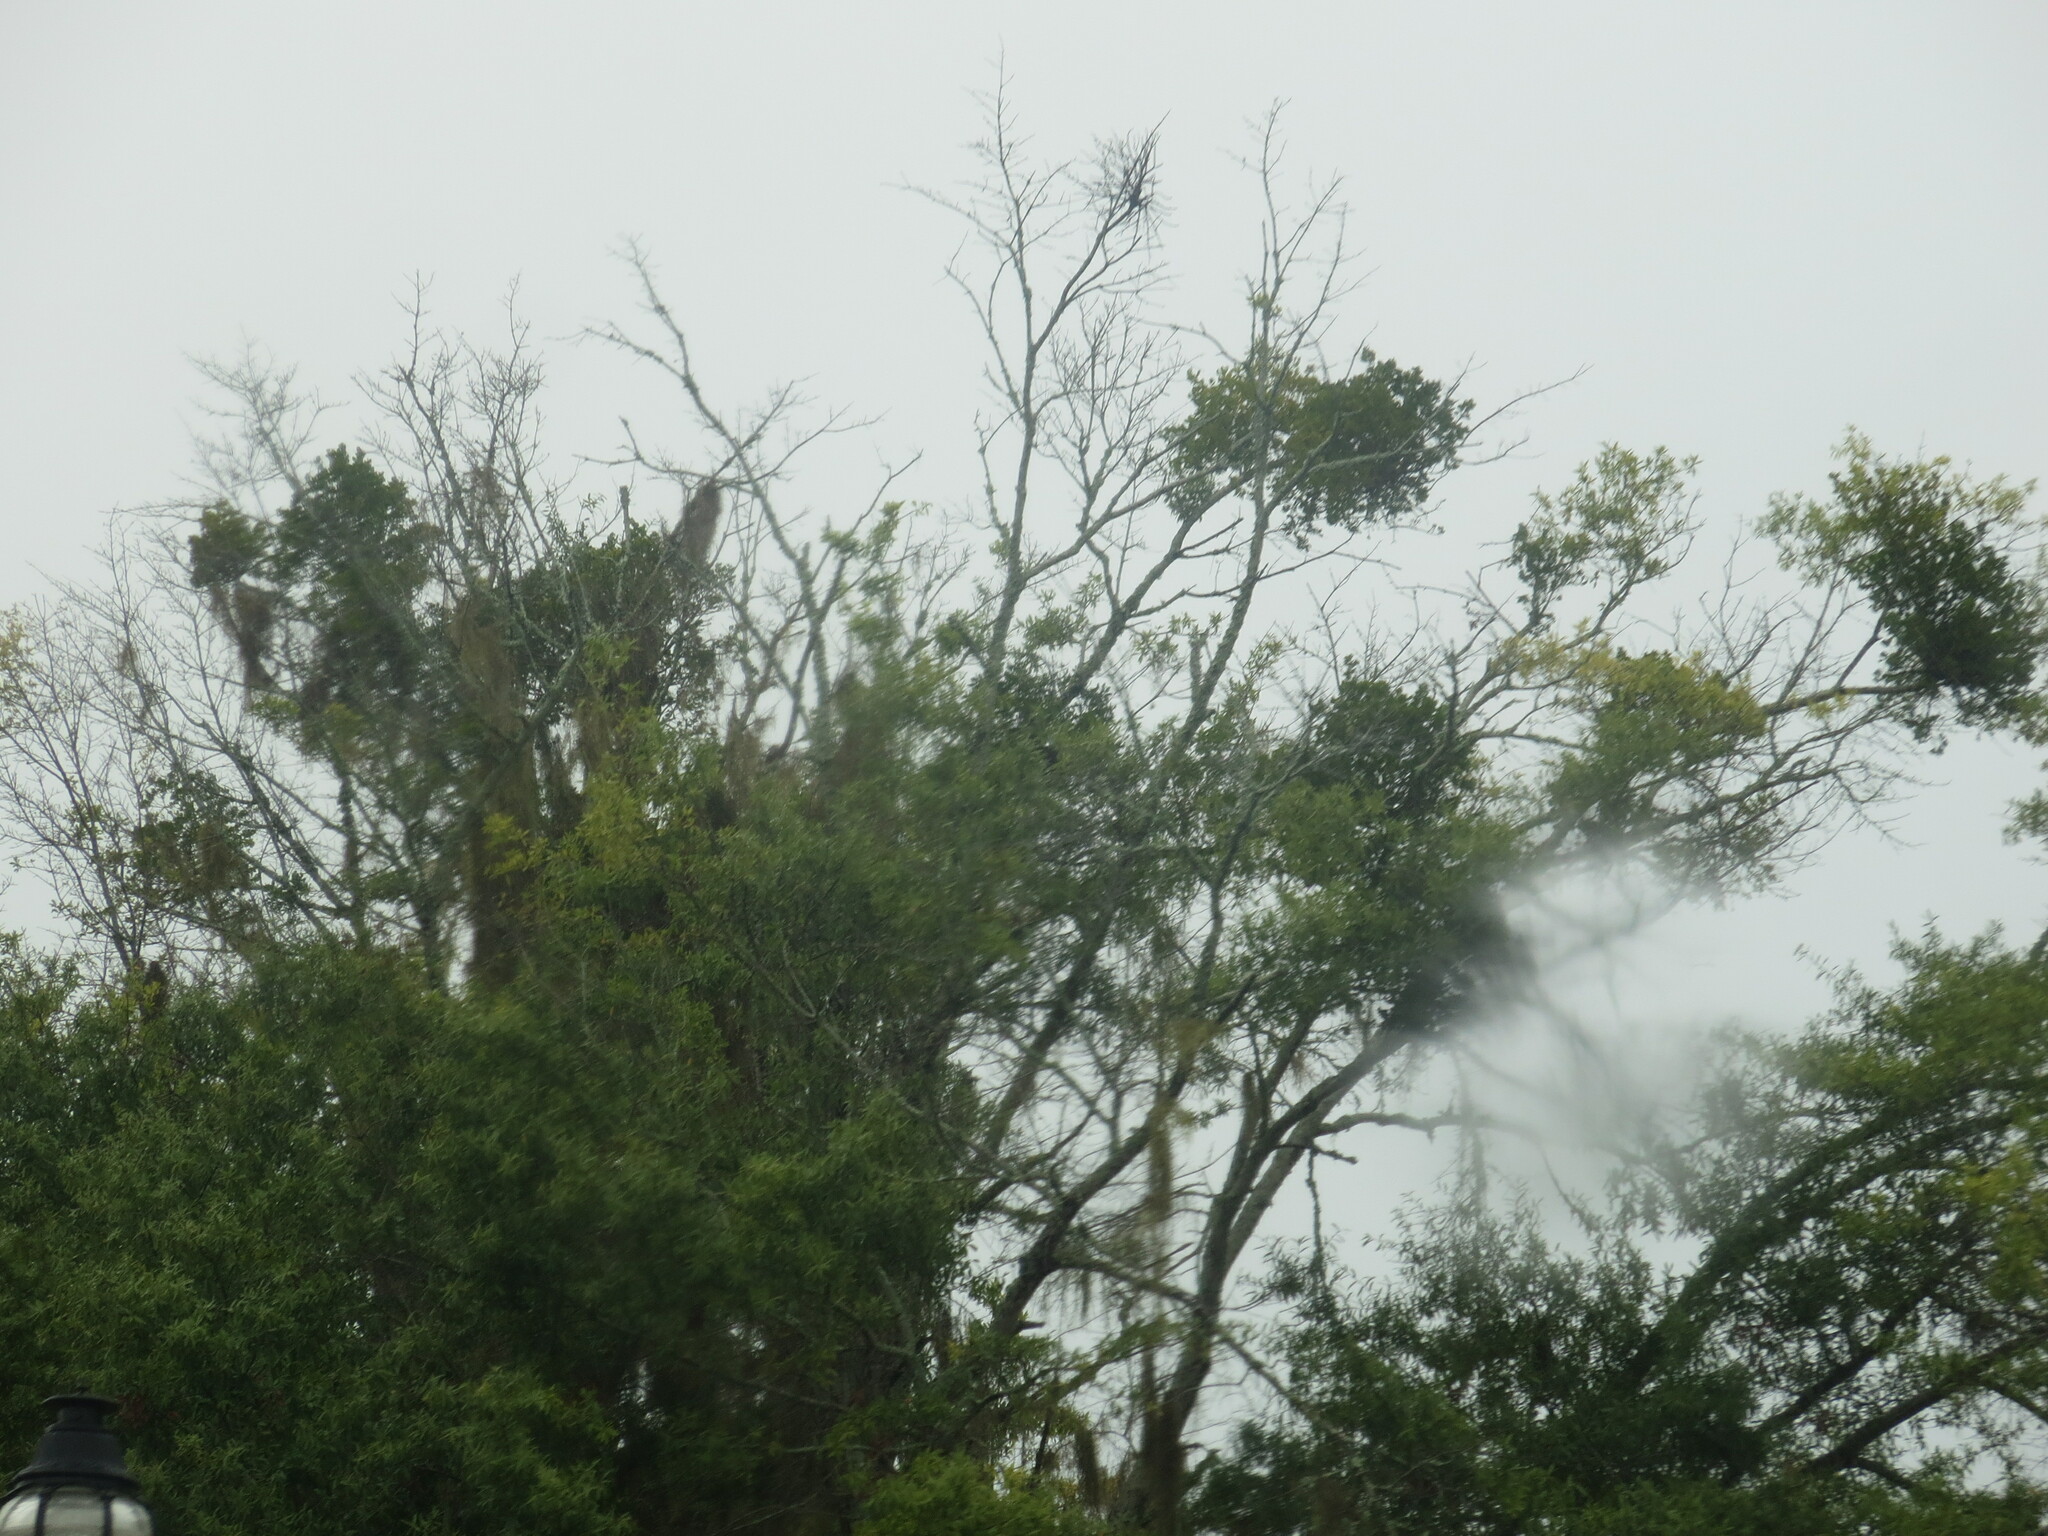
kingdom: Plantae
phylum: Tracheophyta
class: Magnoliopsida
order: Santalales
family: Viscaceae
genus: Phoradendron
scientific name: Phoradendron leucarpum
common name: Pacific mistletoe
